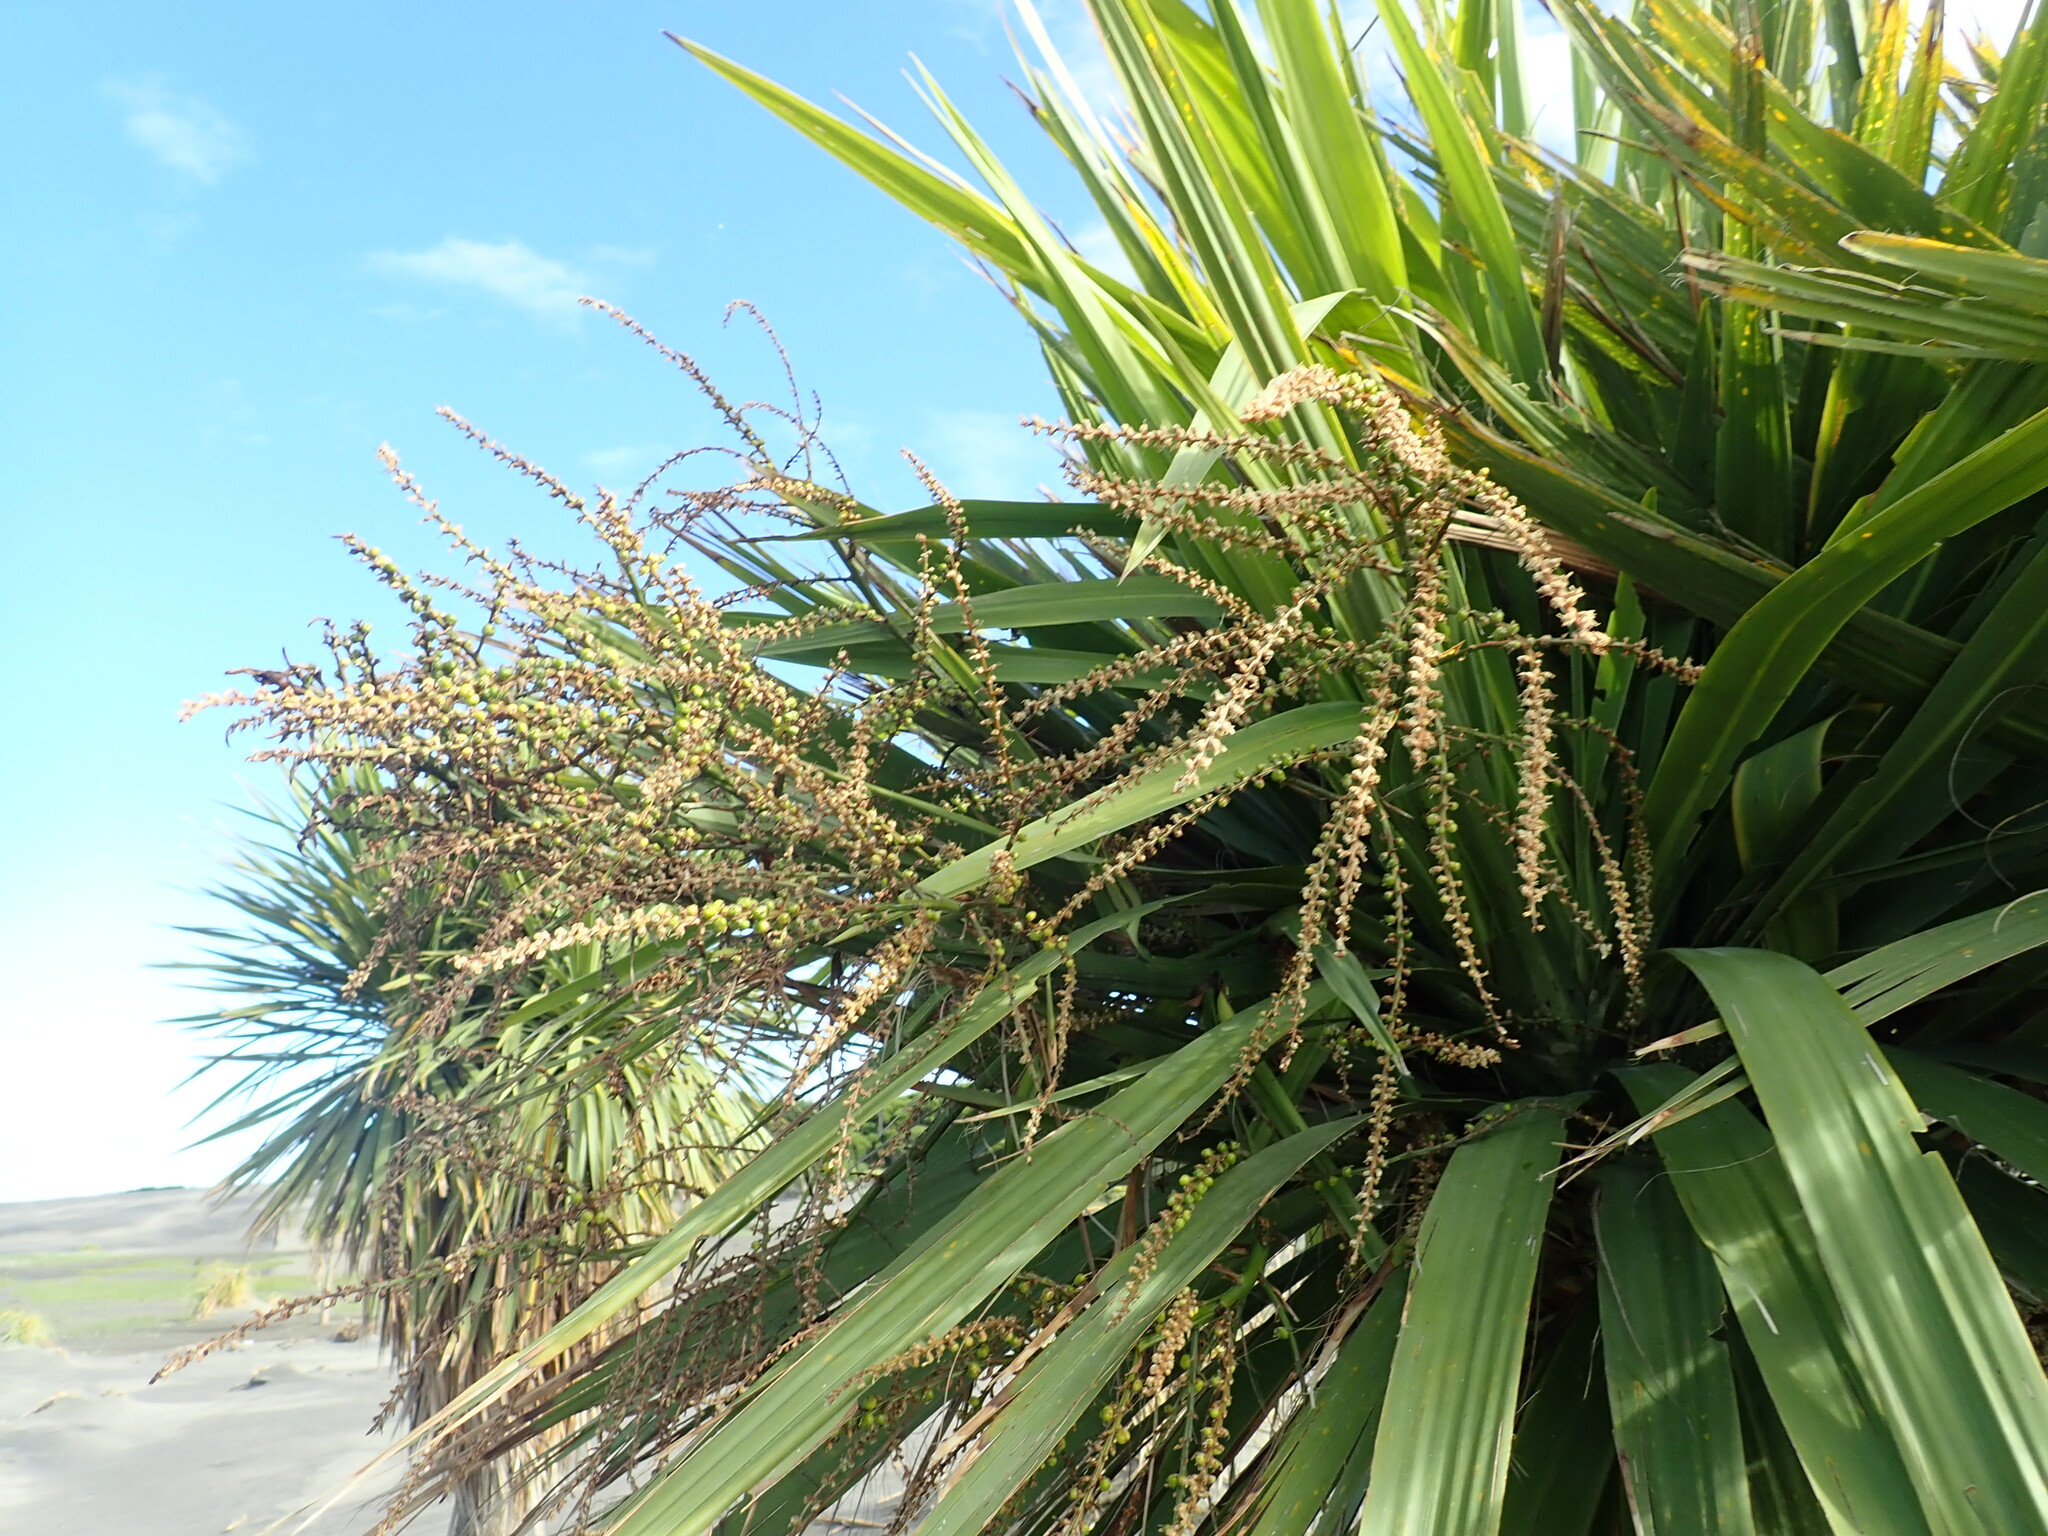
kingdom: Plantae
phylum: Tracheophyta
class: Liliopsida
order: Asparagales
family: Asparagaceae
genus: Cordyline
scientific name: Cordyline australis
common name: Cabbage-palm
